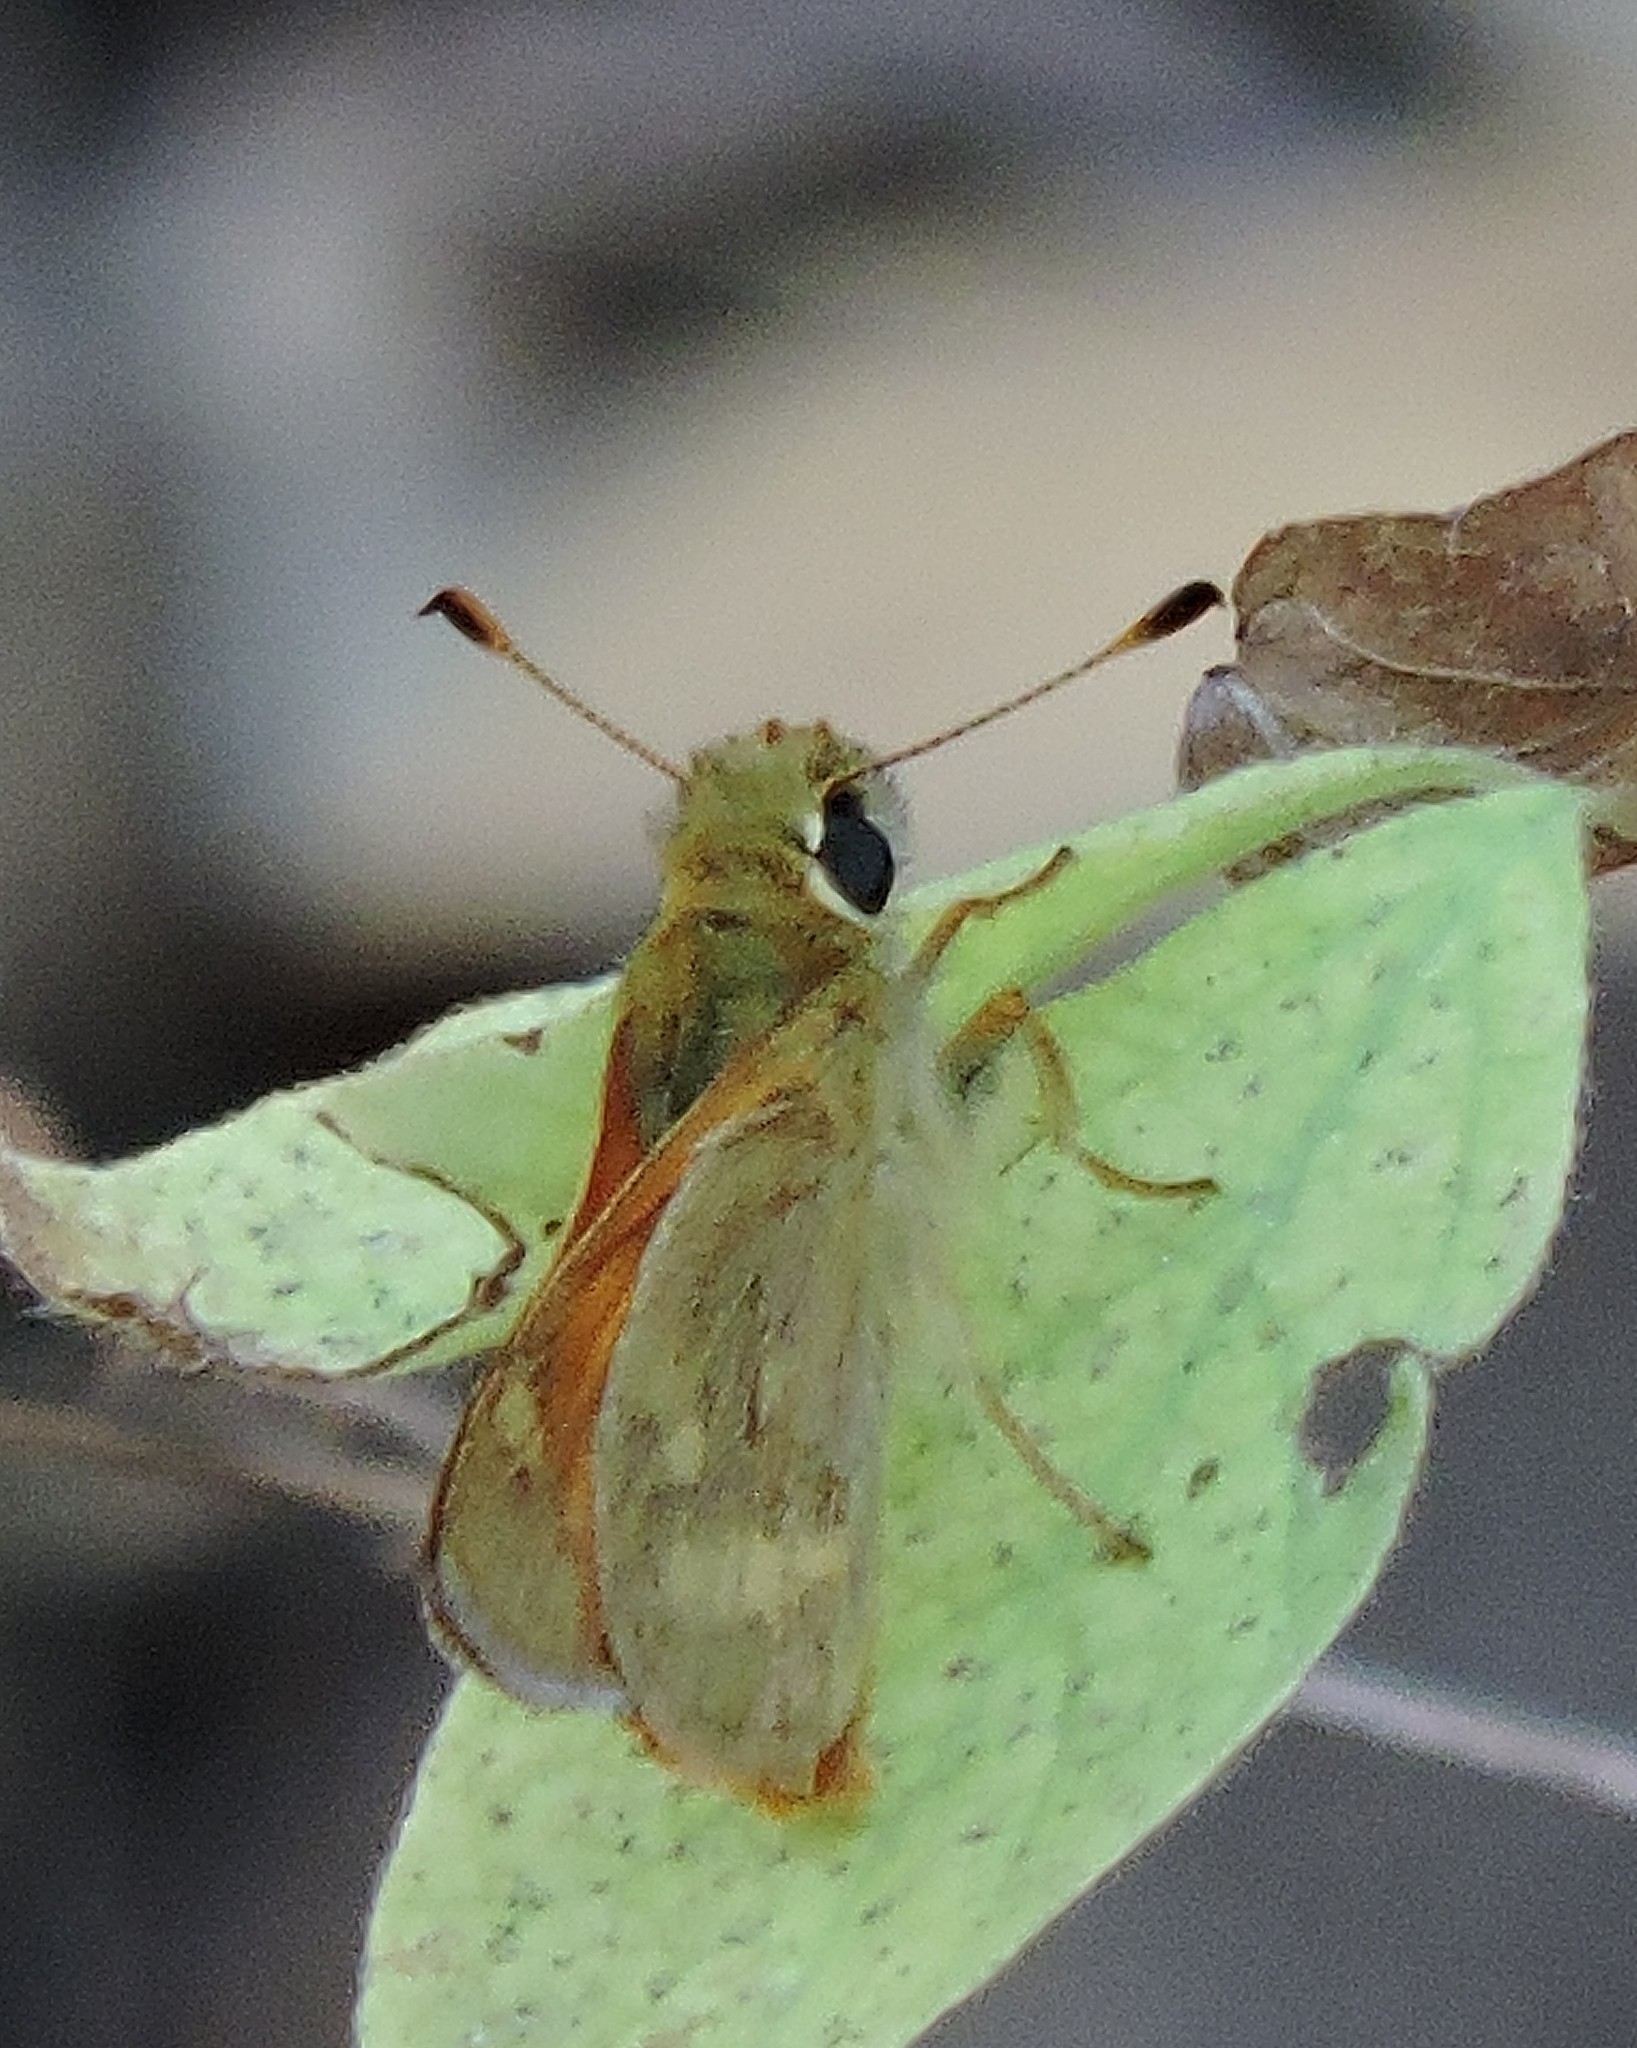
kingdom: Animalia
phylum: Arthropoda
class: Insecta
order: Lepidoptera
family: Hesperiidae
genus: Ochlodes
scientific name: Ochlodes sylvanoides
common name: Woodland skipper
